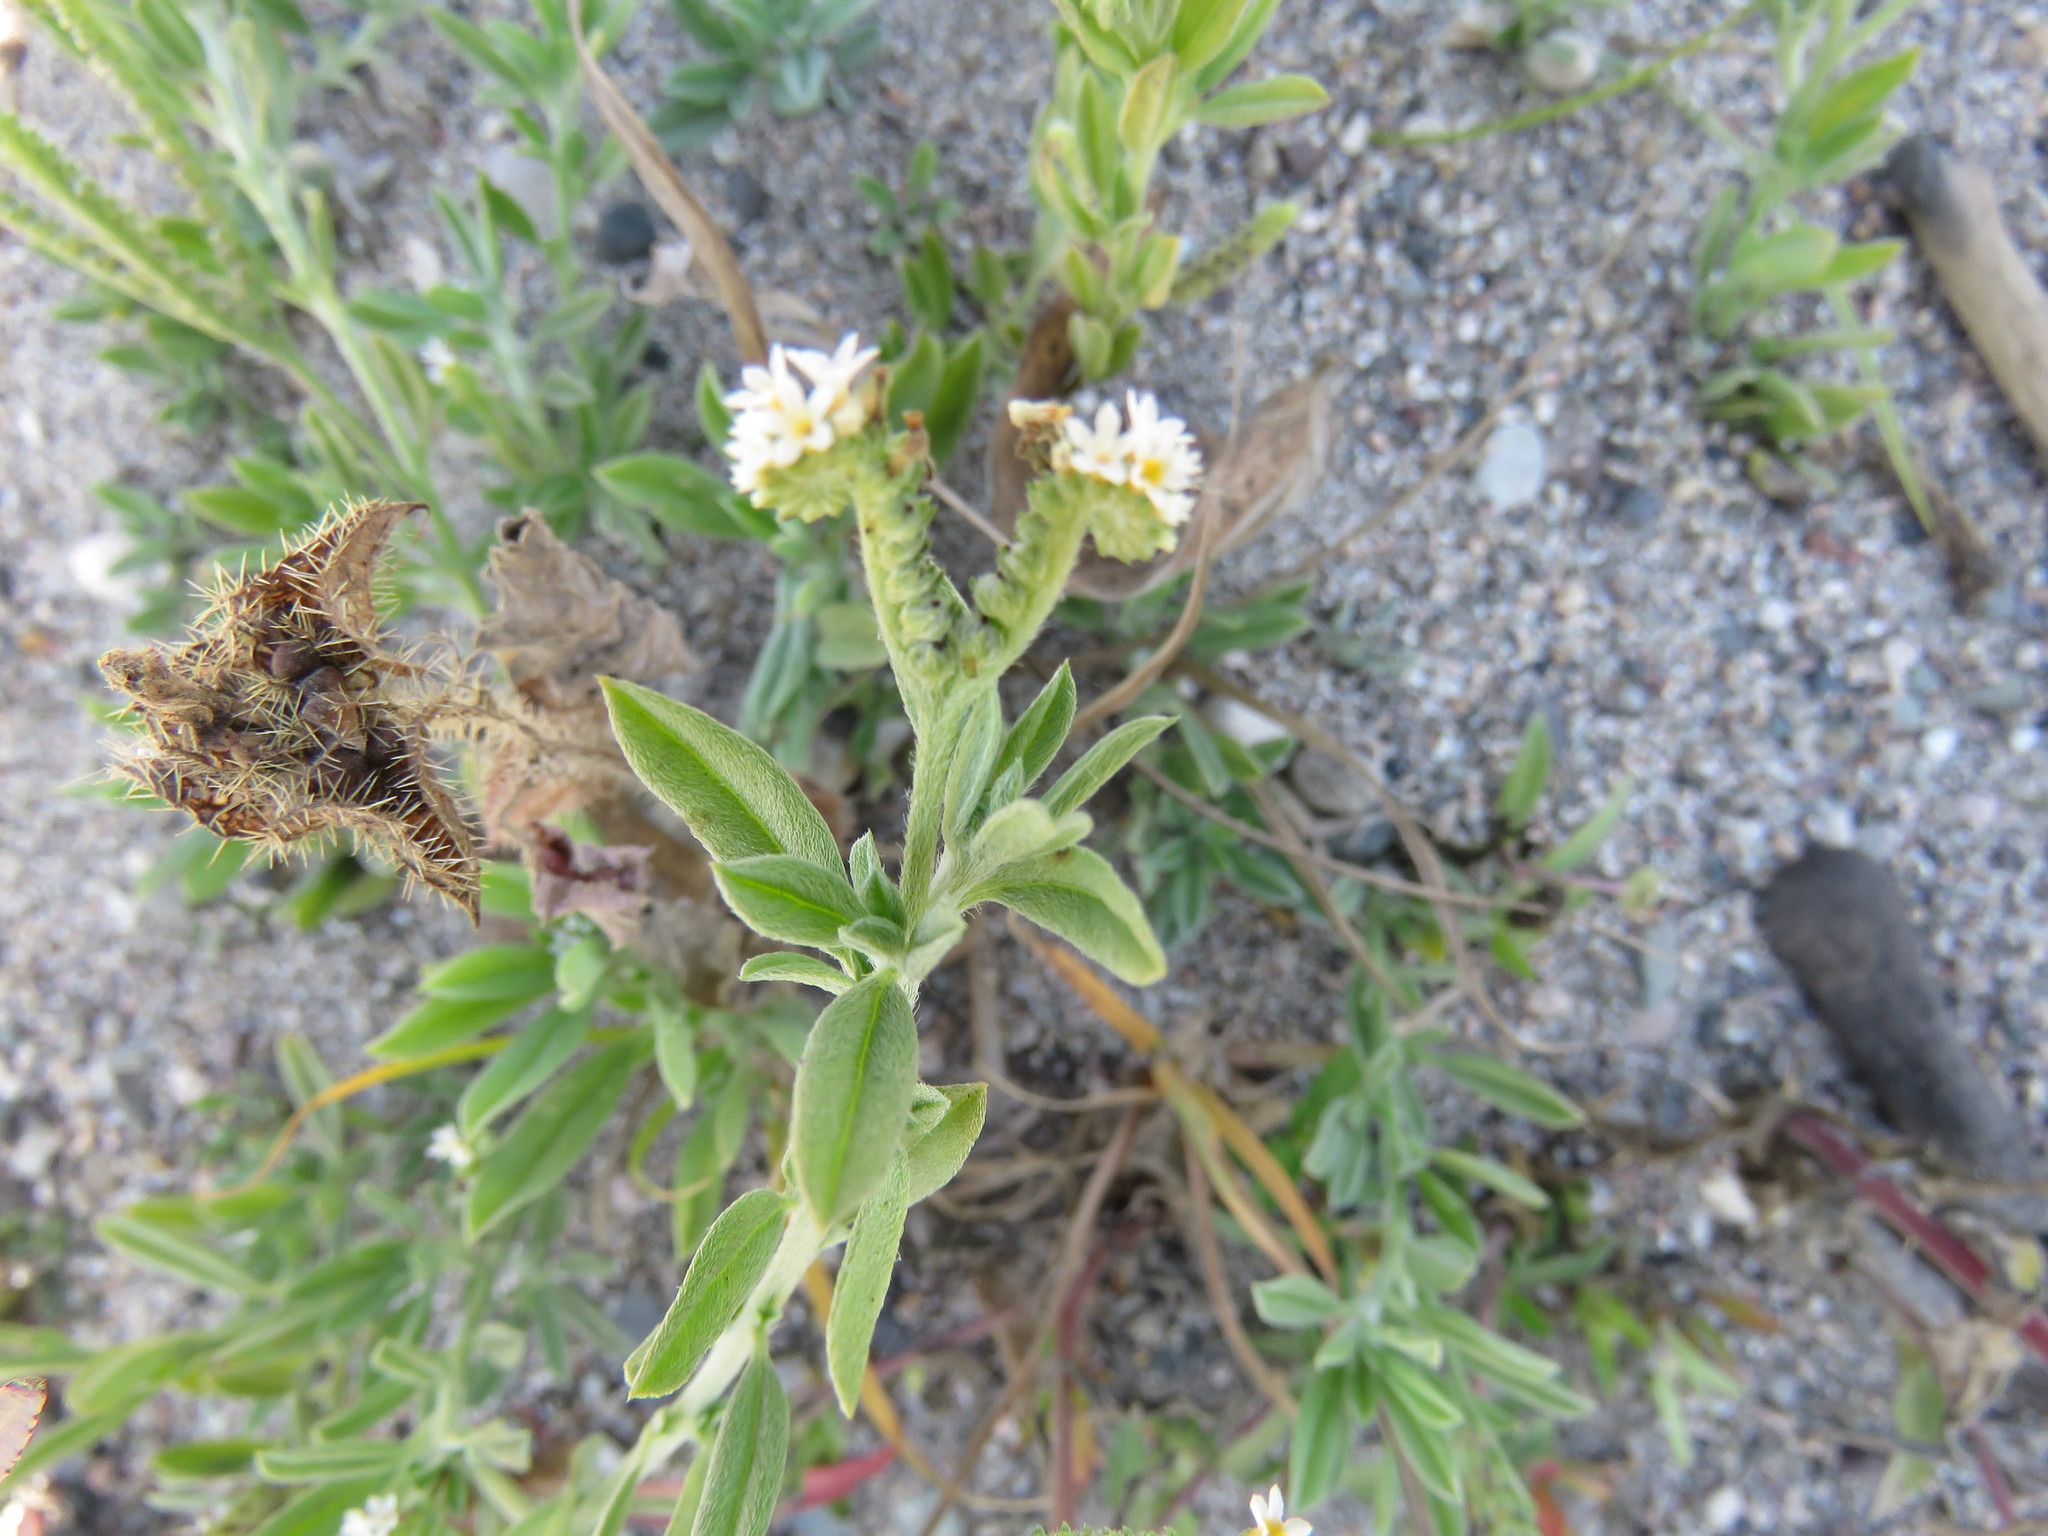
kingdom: Plantae
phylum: Tracheophyta
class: Magnoliopsida
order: Boraginales
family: Heliotropiaceae
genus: Euploca
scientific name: Euploca procumbens
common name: Fourspike heliotrope
